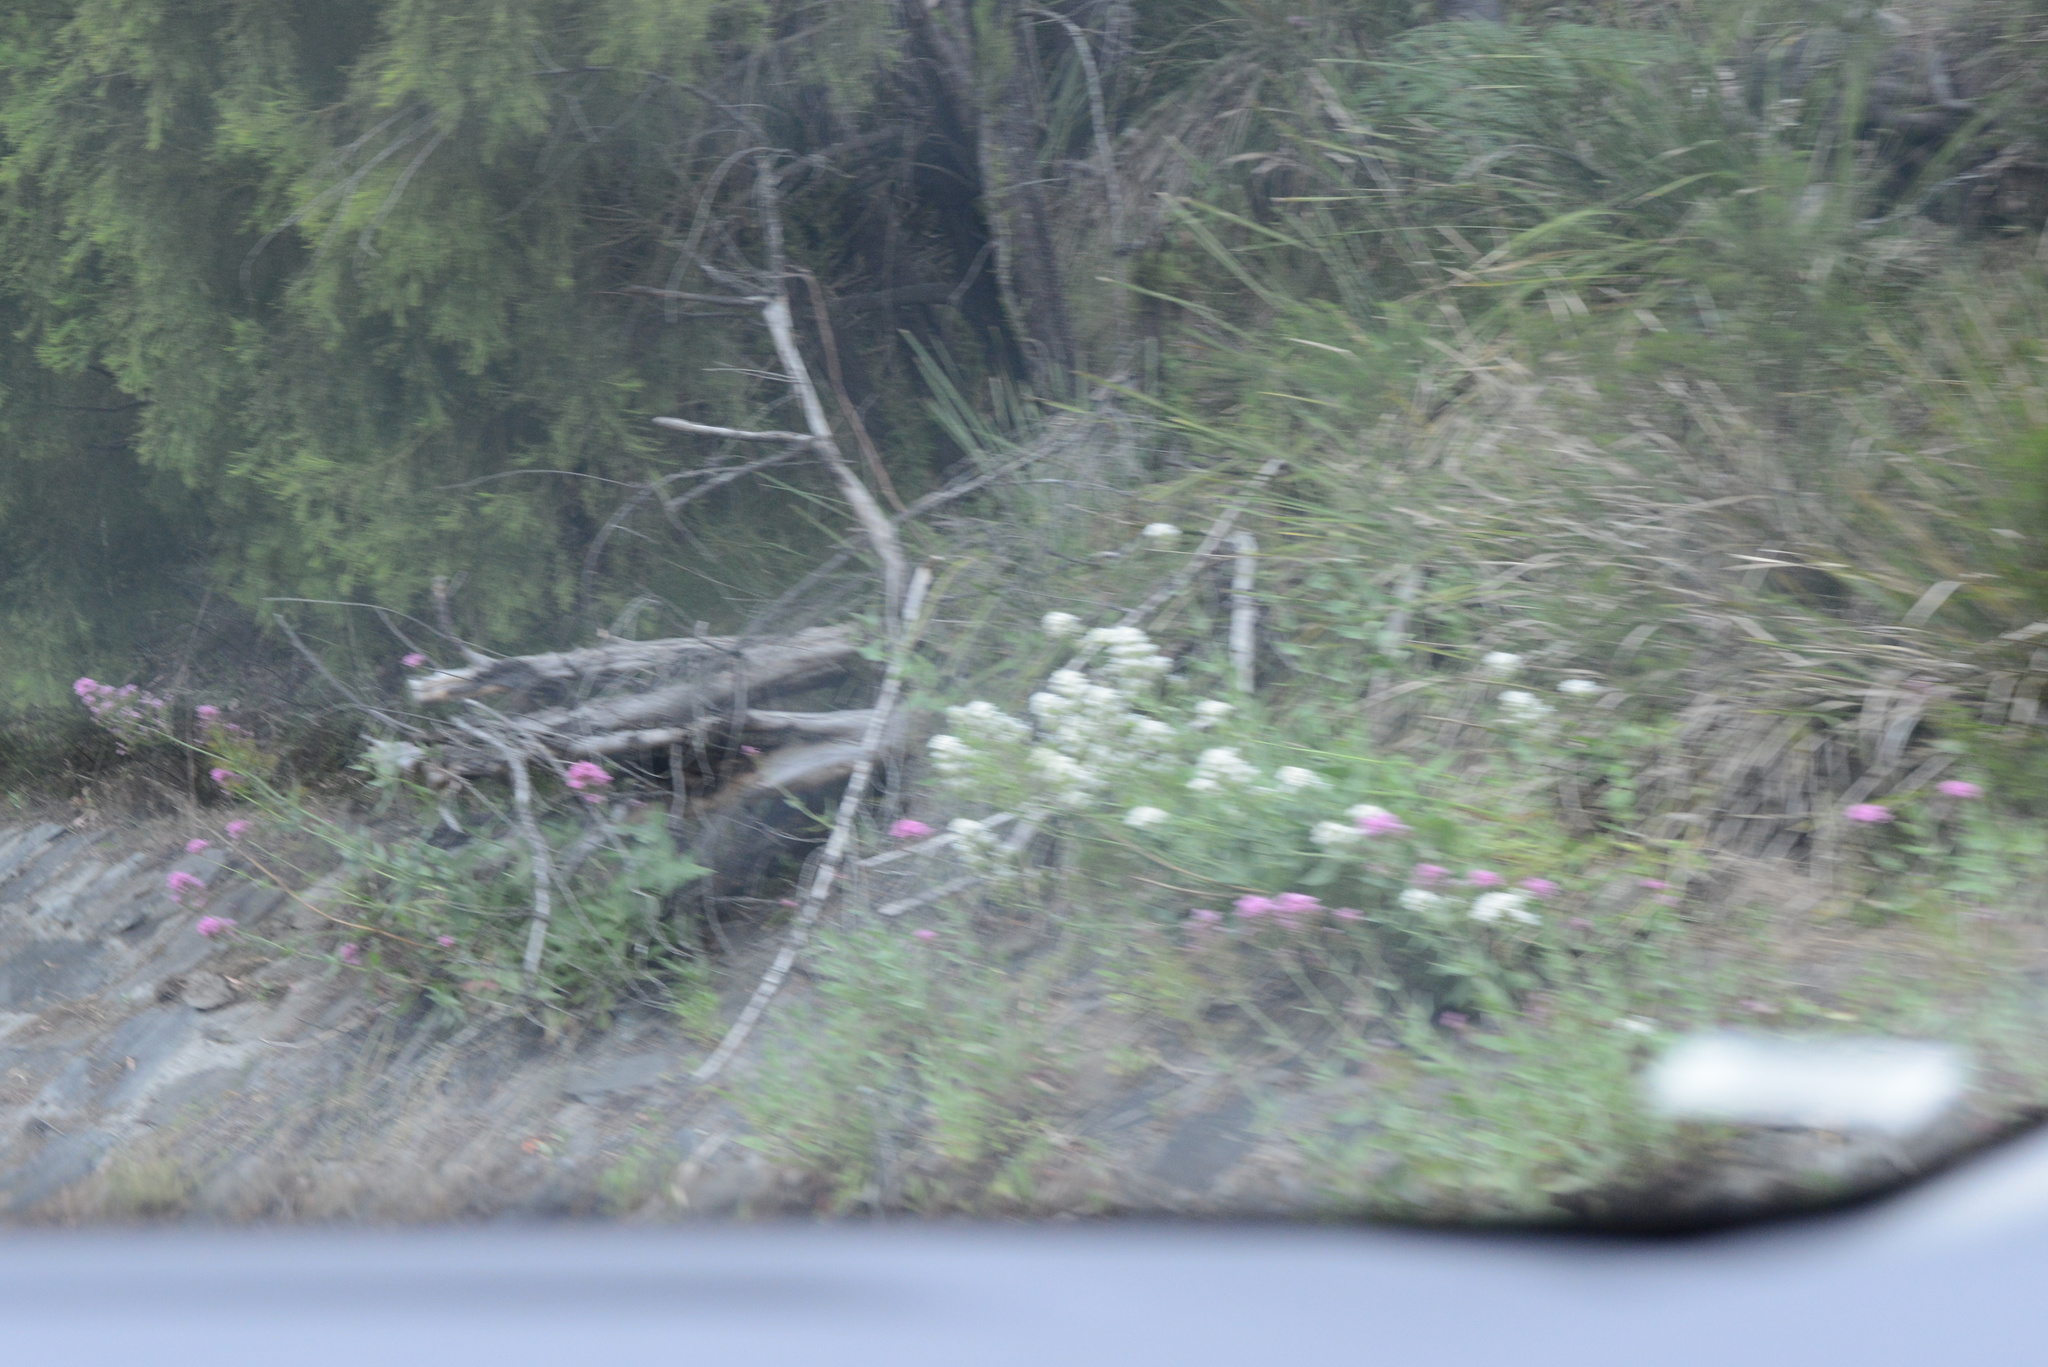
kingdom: Plantae
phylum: Tracheophyta
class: Magnoliopsida
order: Dipsacales
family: Caprifoliaceae
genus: Centranthus
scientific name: Centranthus ruber
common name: Red valerian
